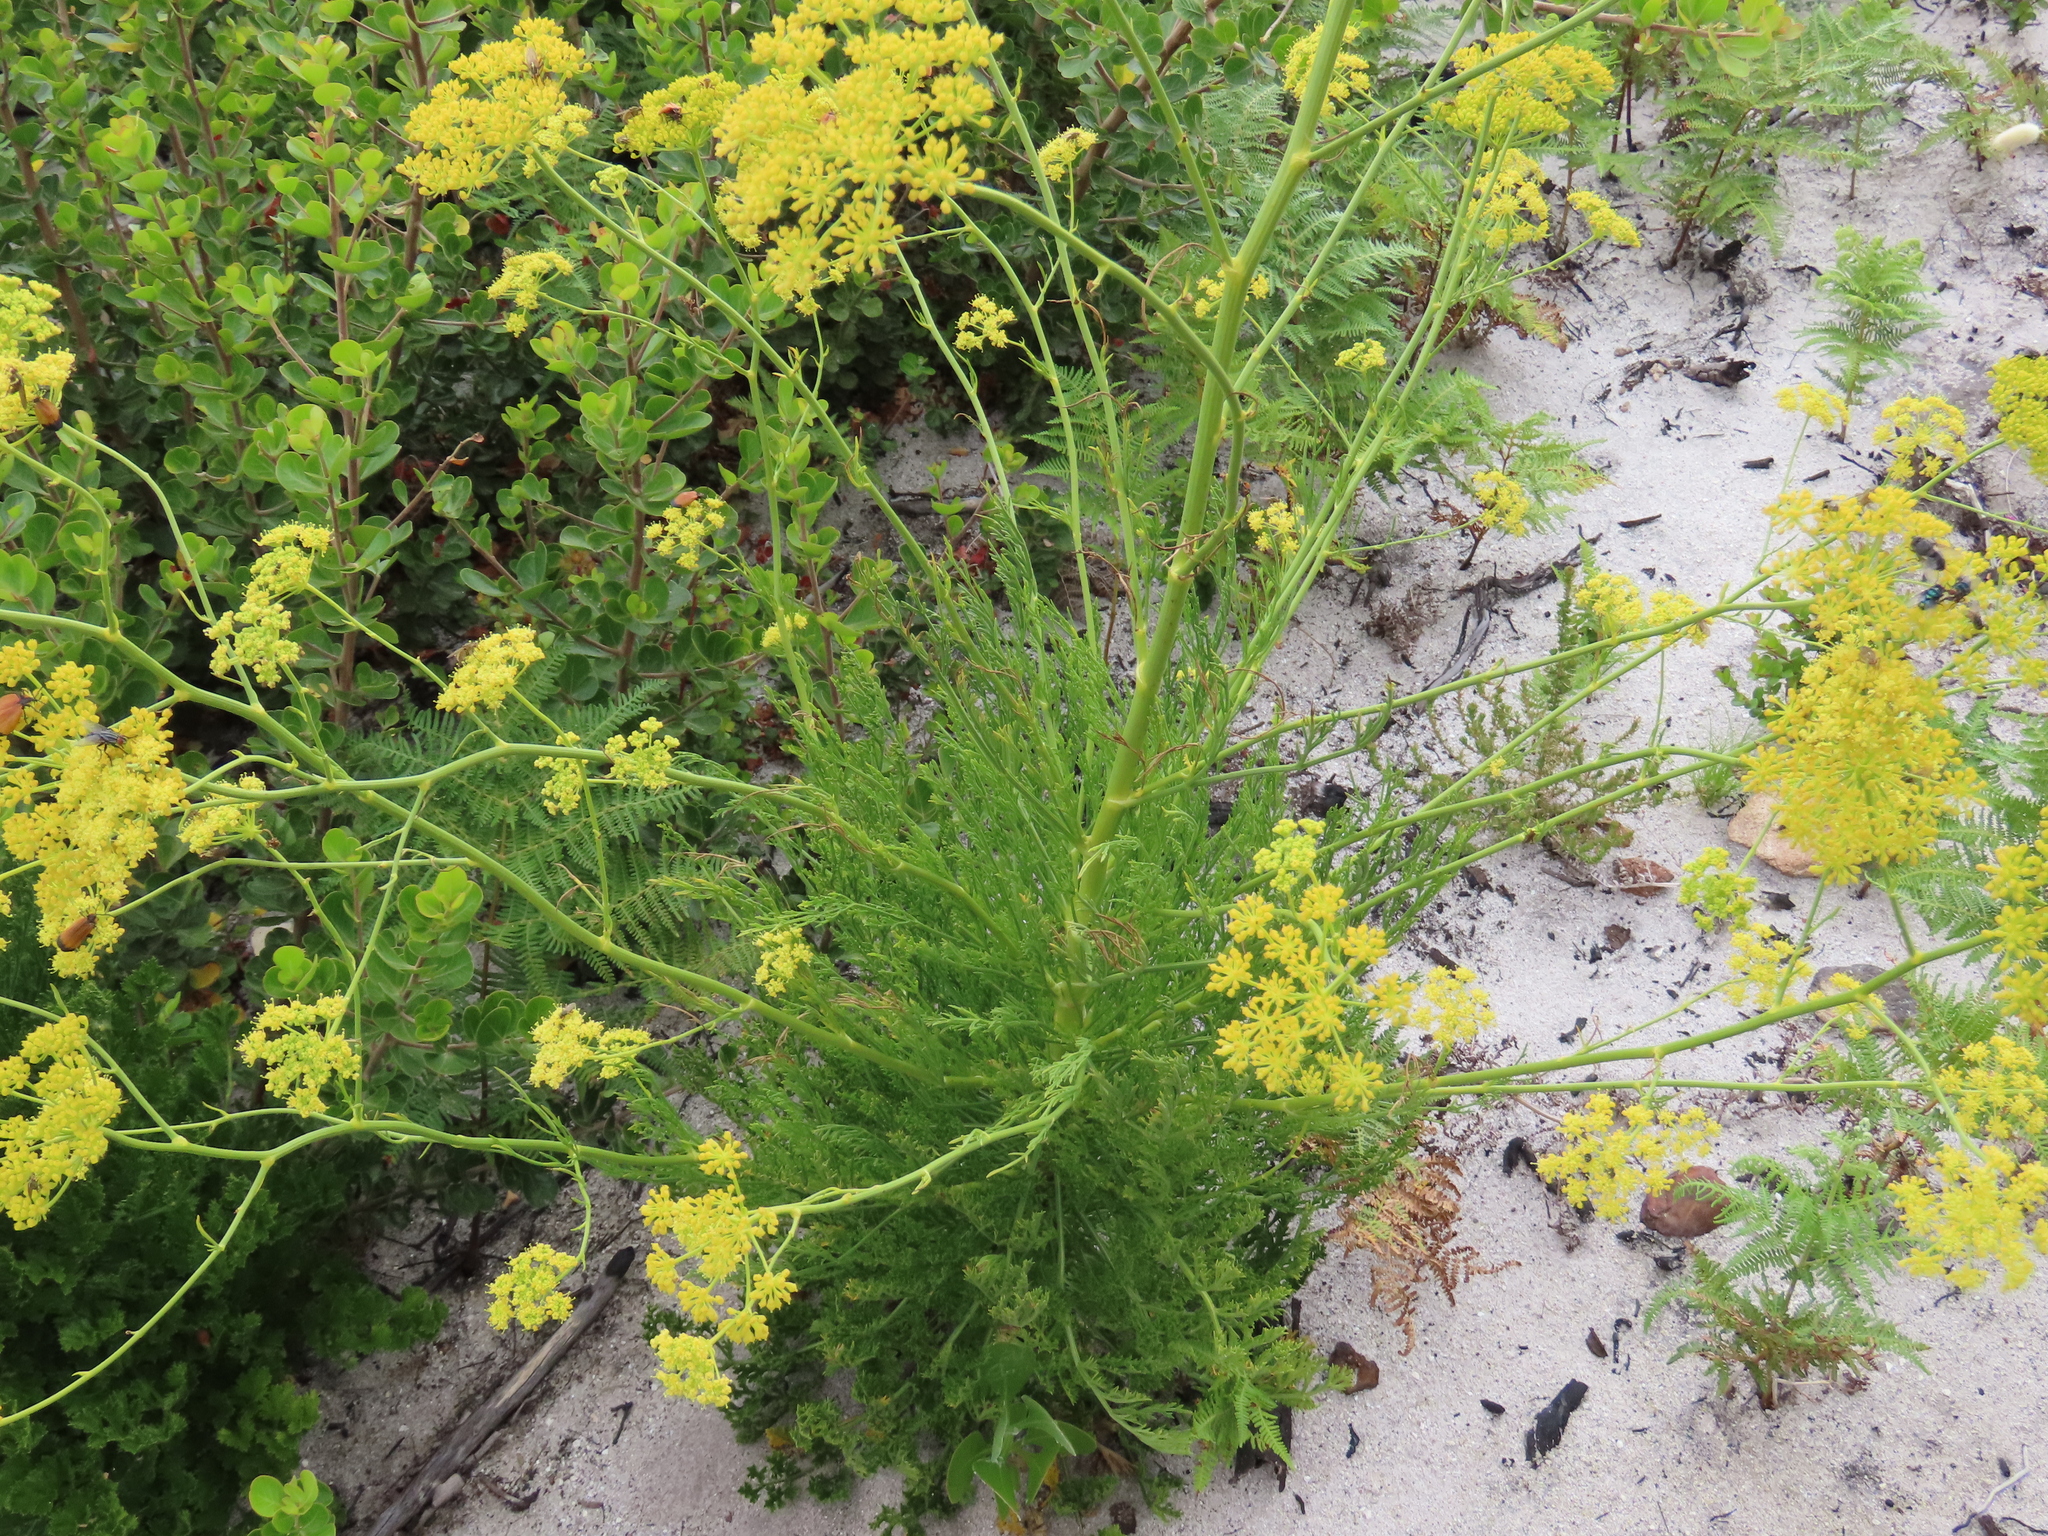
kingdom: Plantae
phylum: Tracheophyta
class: Magnoliopsida
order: Apiales
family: Apiaceae
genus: Glia
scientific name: Glia prolifera
